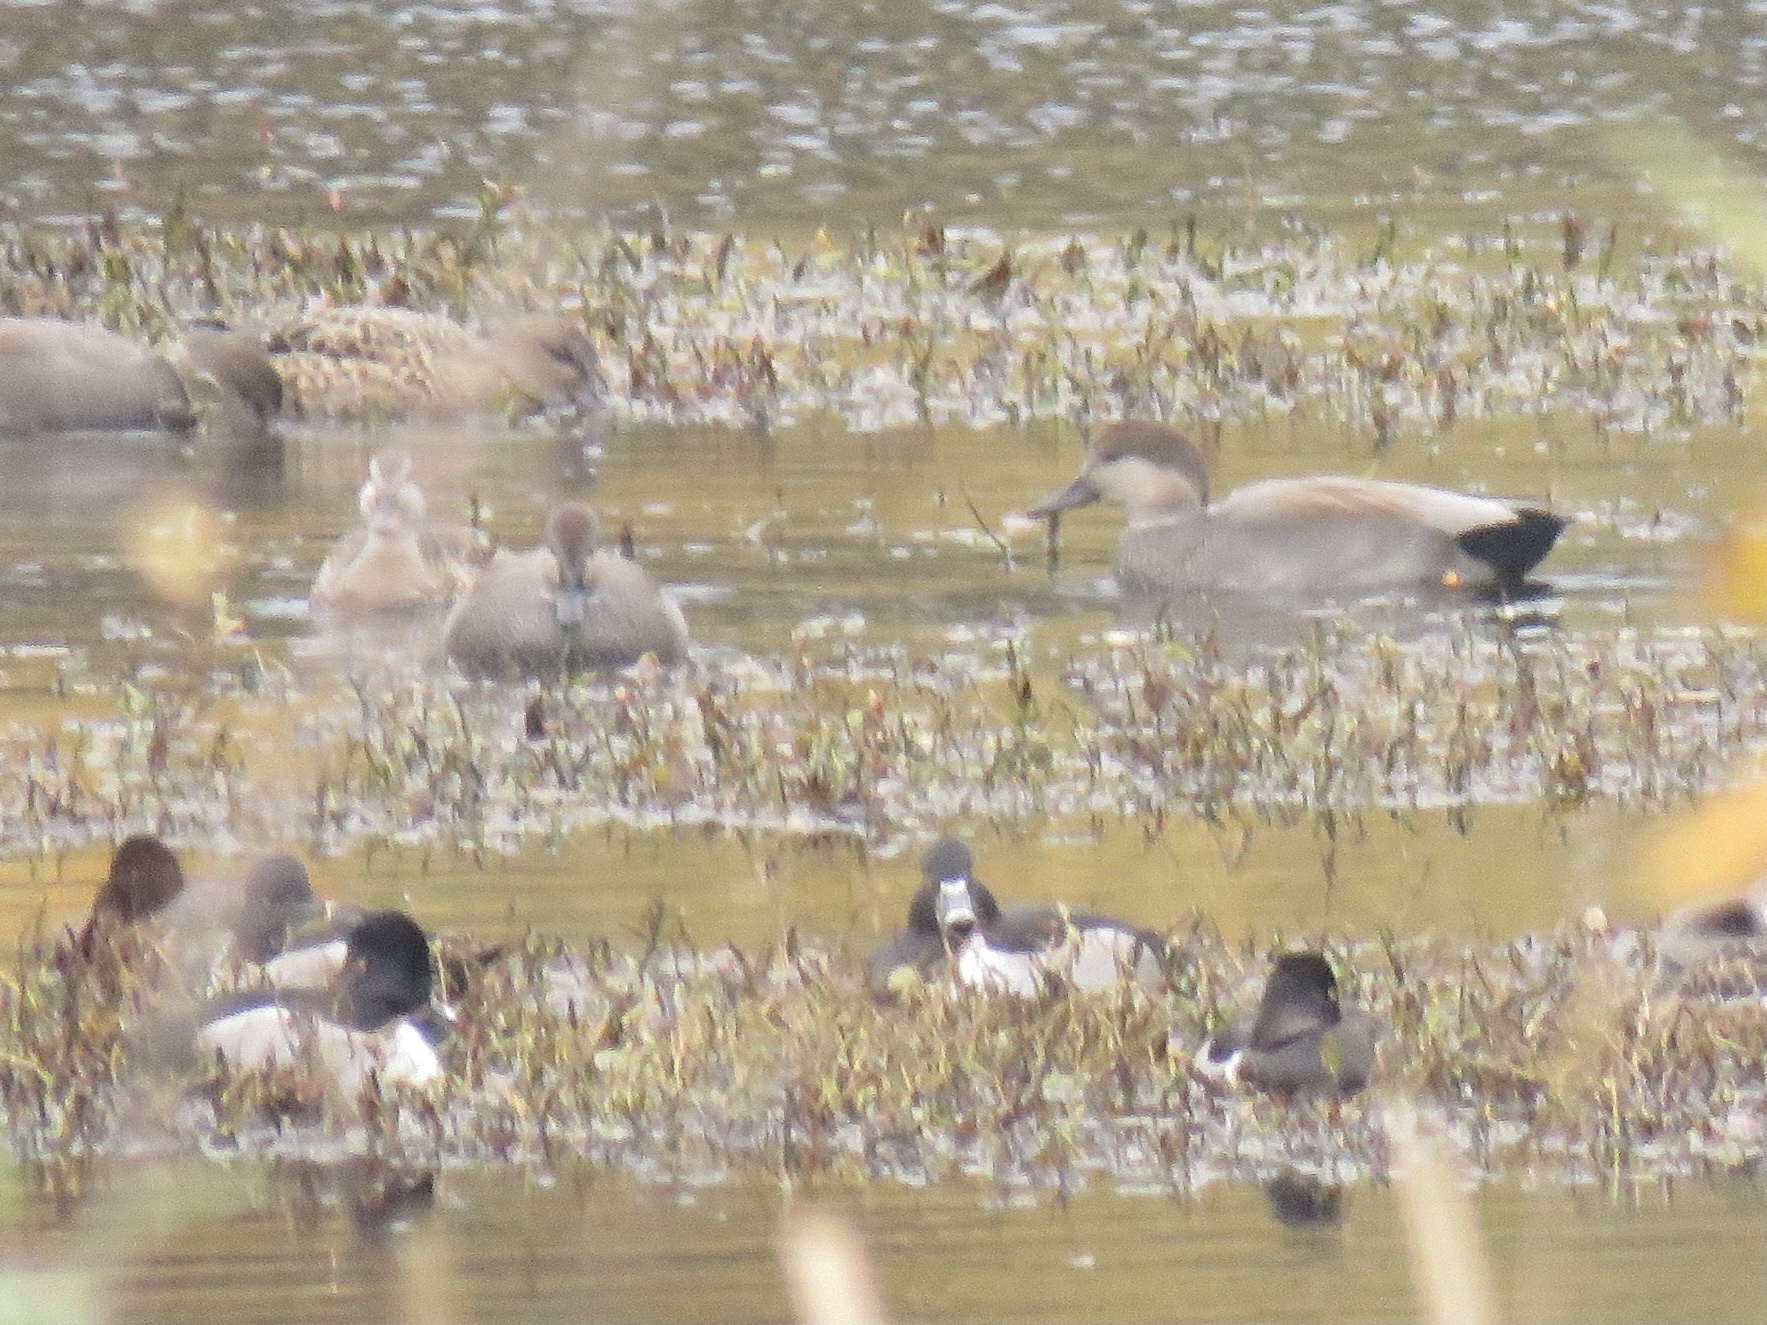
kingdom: Animalia
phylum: Chordata
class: Aves
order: Anseriformes
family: Anatidae
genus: Mareca
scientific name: Mareca strepera
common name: Gadwall
